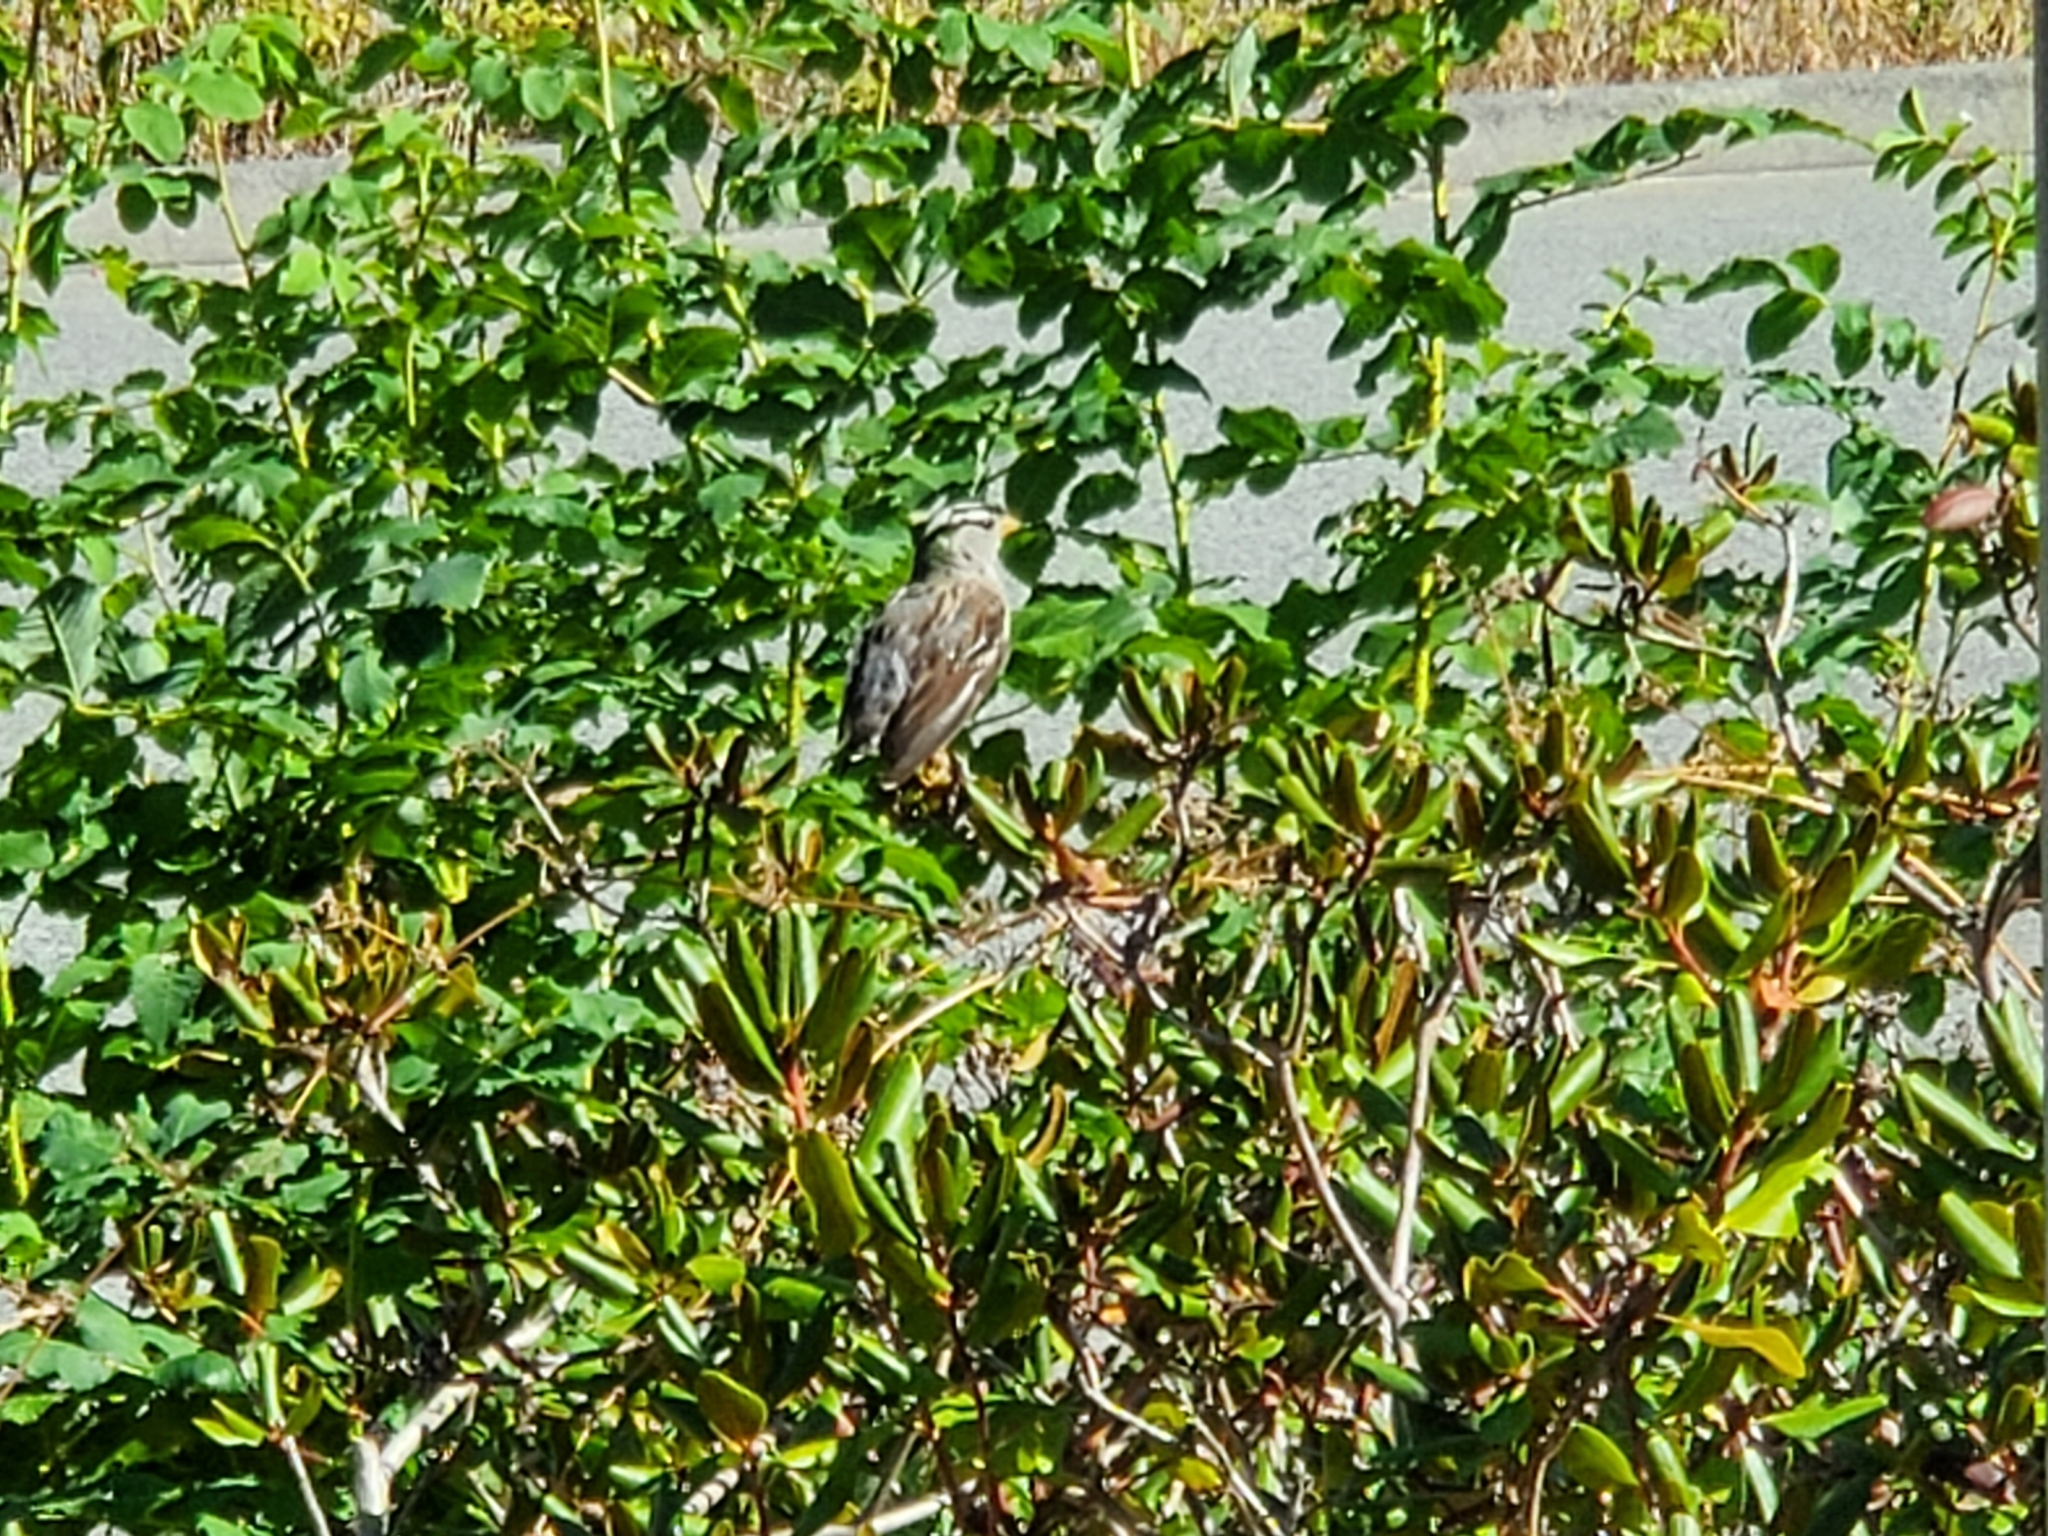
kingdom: Animalia
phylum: Chordata
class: Aves
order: Passeriformes
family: Passerellidae
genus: Zonotrichia
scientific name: Zonotrichia leucophrys
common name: White-crowned sparrow
